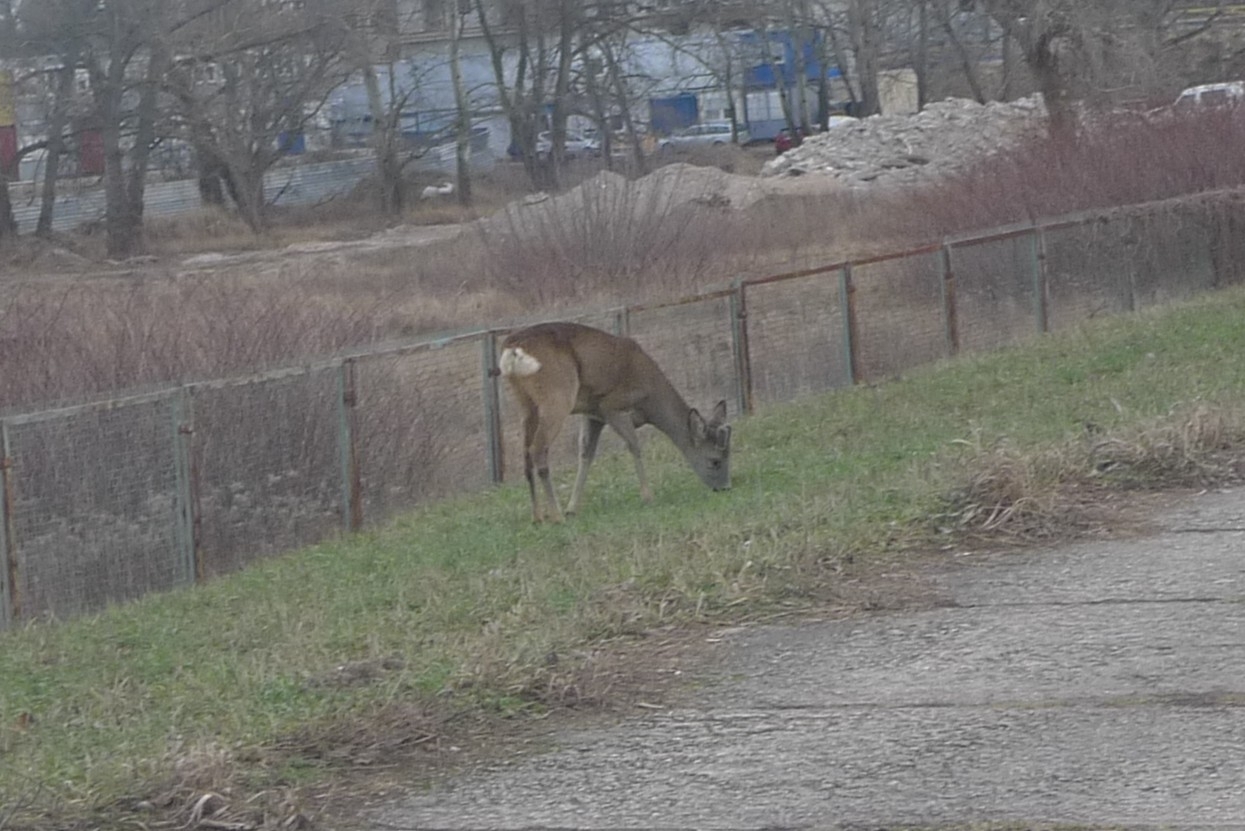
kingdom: Animalia
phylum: Chordata
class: Mammalia
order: Artiodactyla
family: Cervidae
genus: Capreolus
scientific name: Capreolus capreolus
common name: Western roe deer
